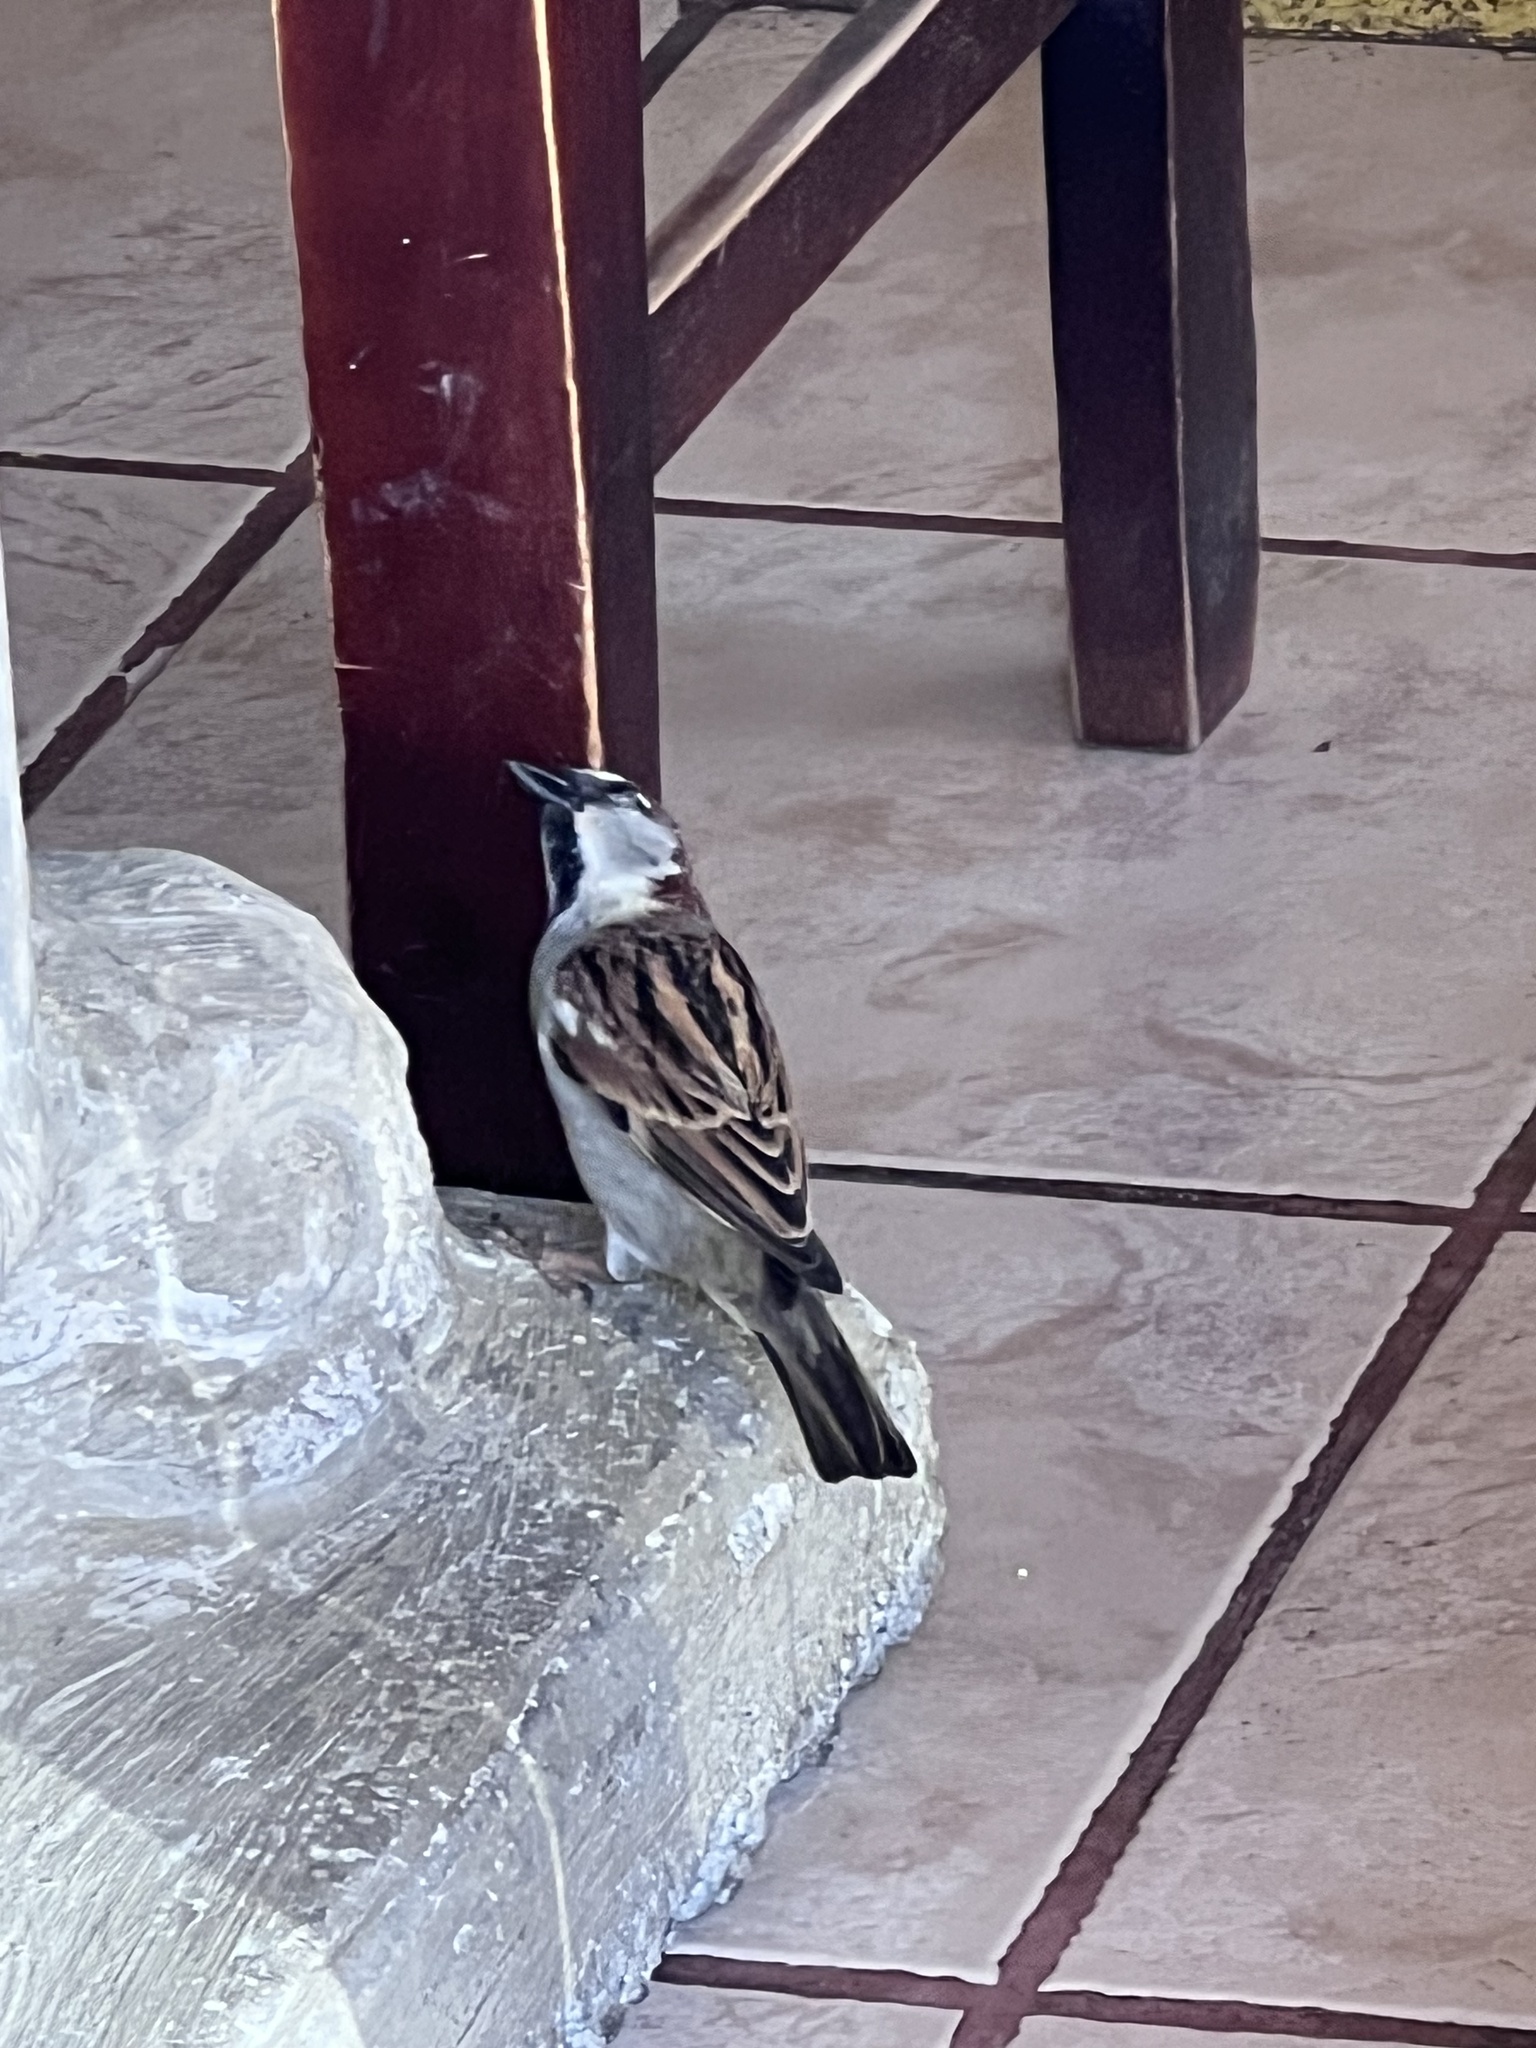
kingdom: Animalia
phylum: Chordata
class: Aves
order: Passeriformes
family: Passeridae
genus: Passer
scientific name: Passer domesticus
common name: House sparrow
